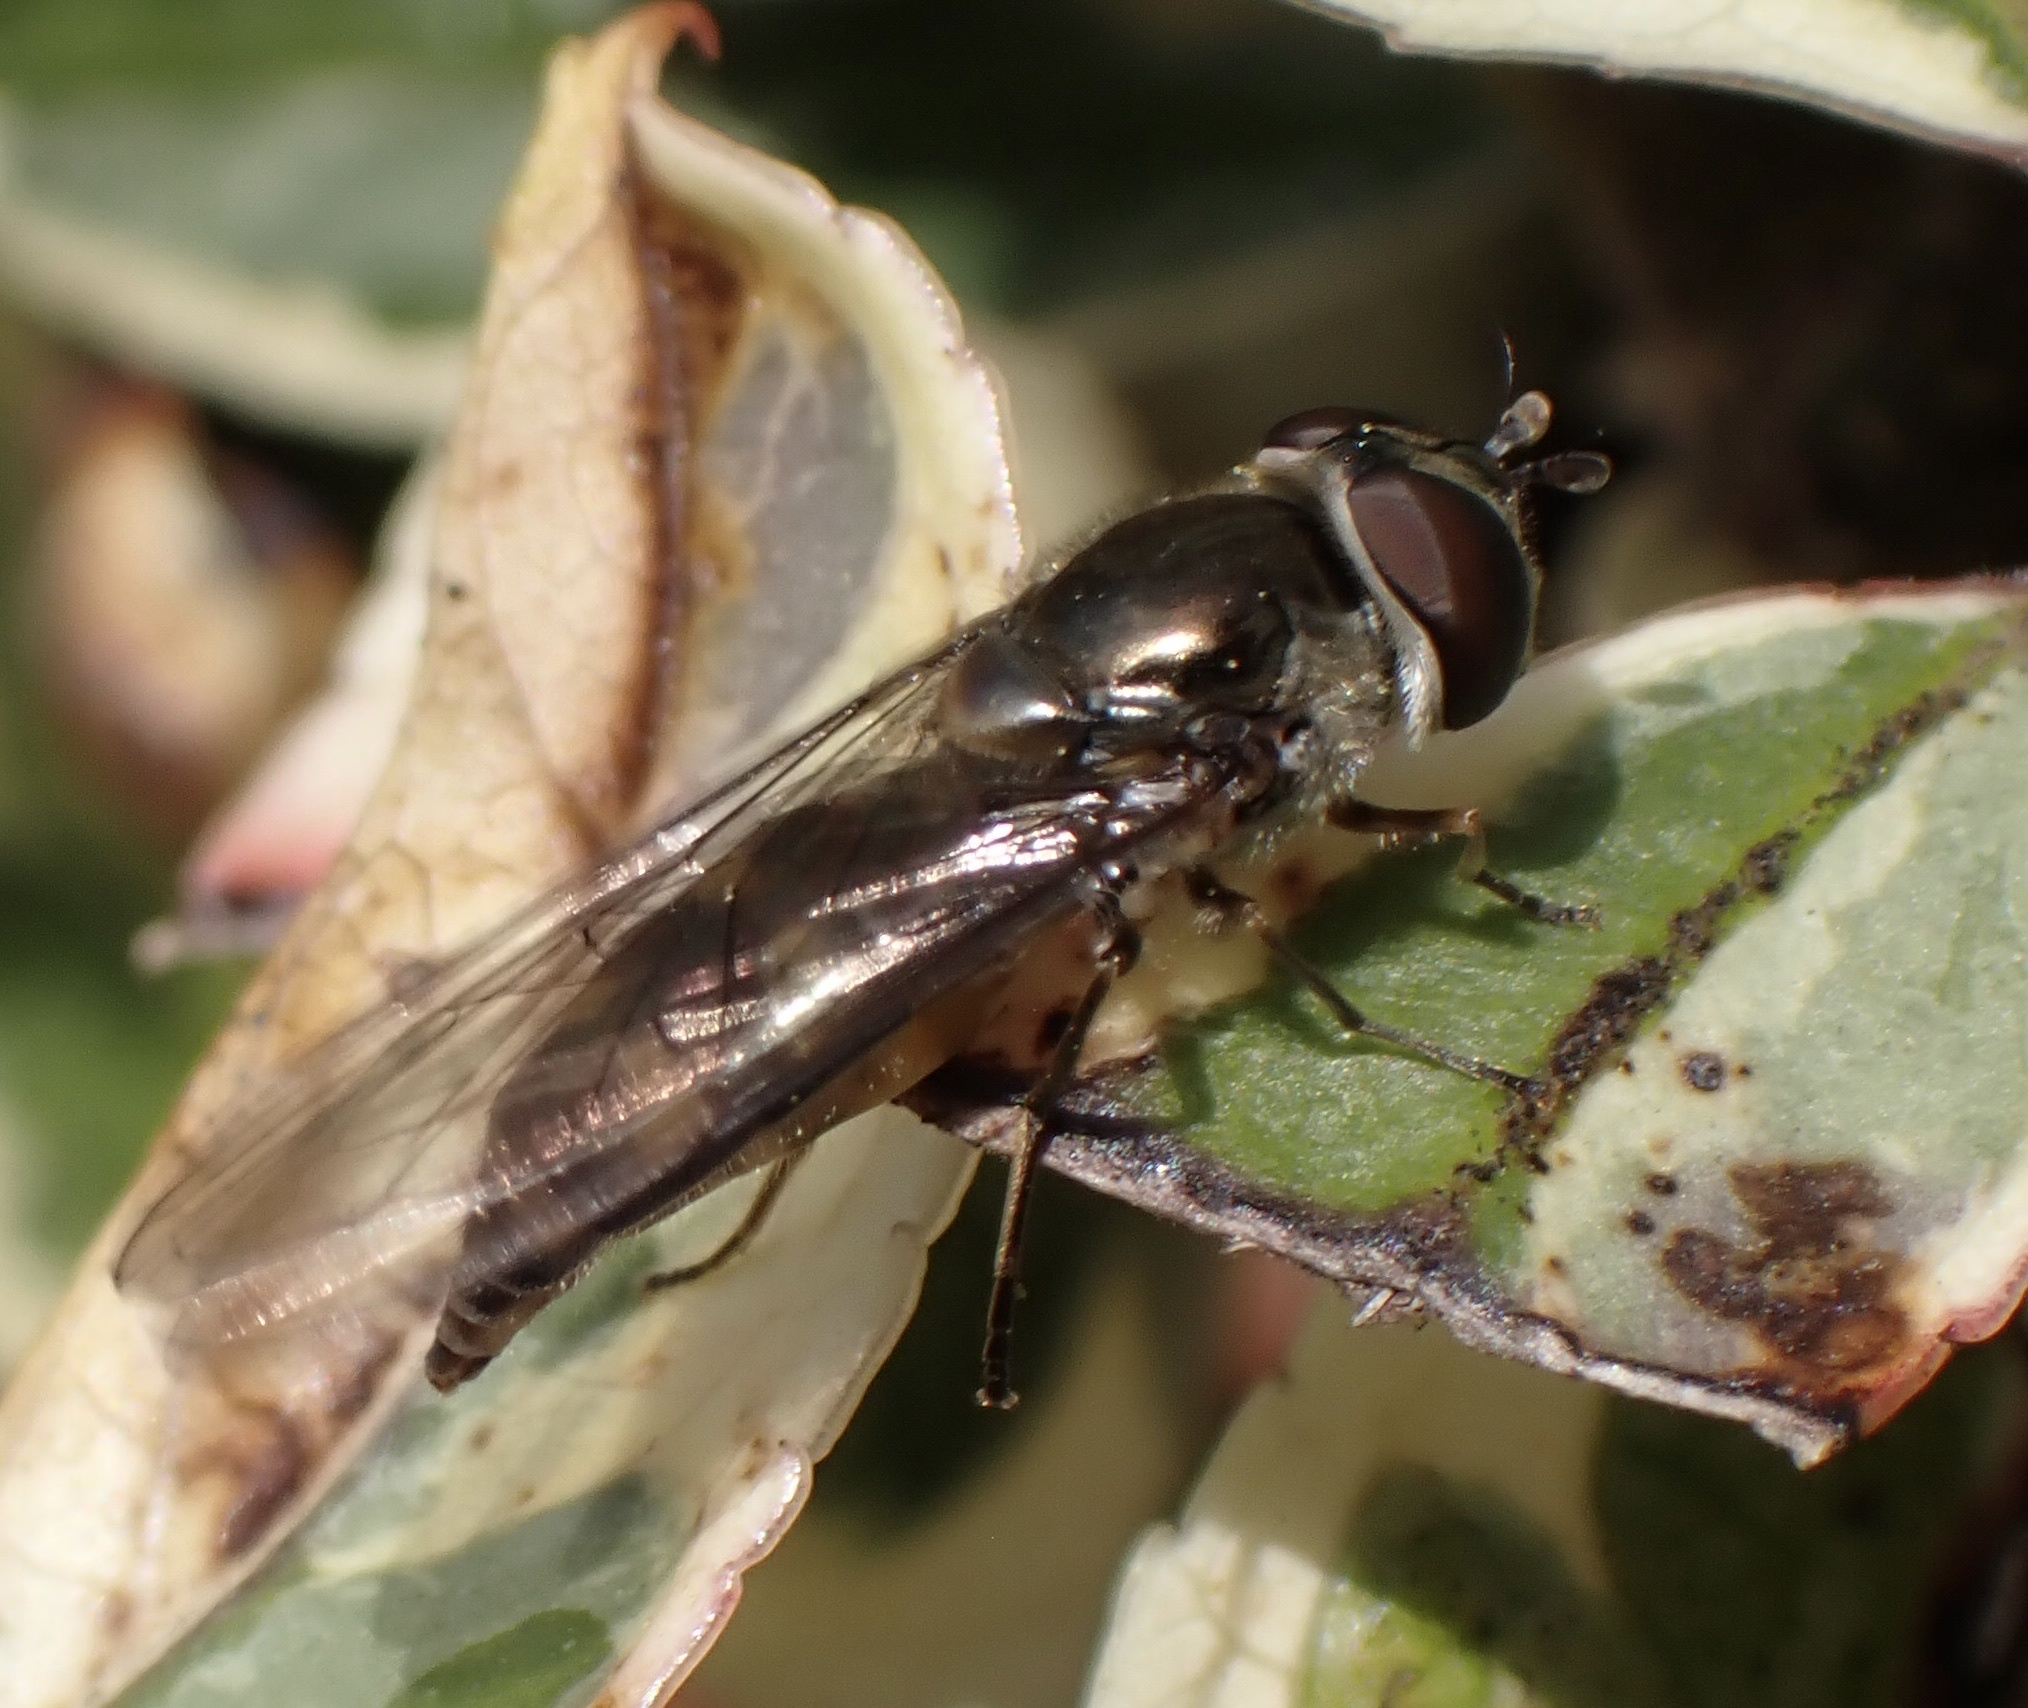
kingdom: Animalia
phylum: Arthropoda
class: Insecta
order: Diptera
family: Syrphidae
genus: Meliscaeva
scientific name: Meliscaeva auricollis
